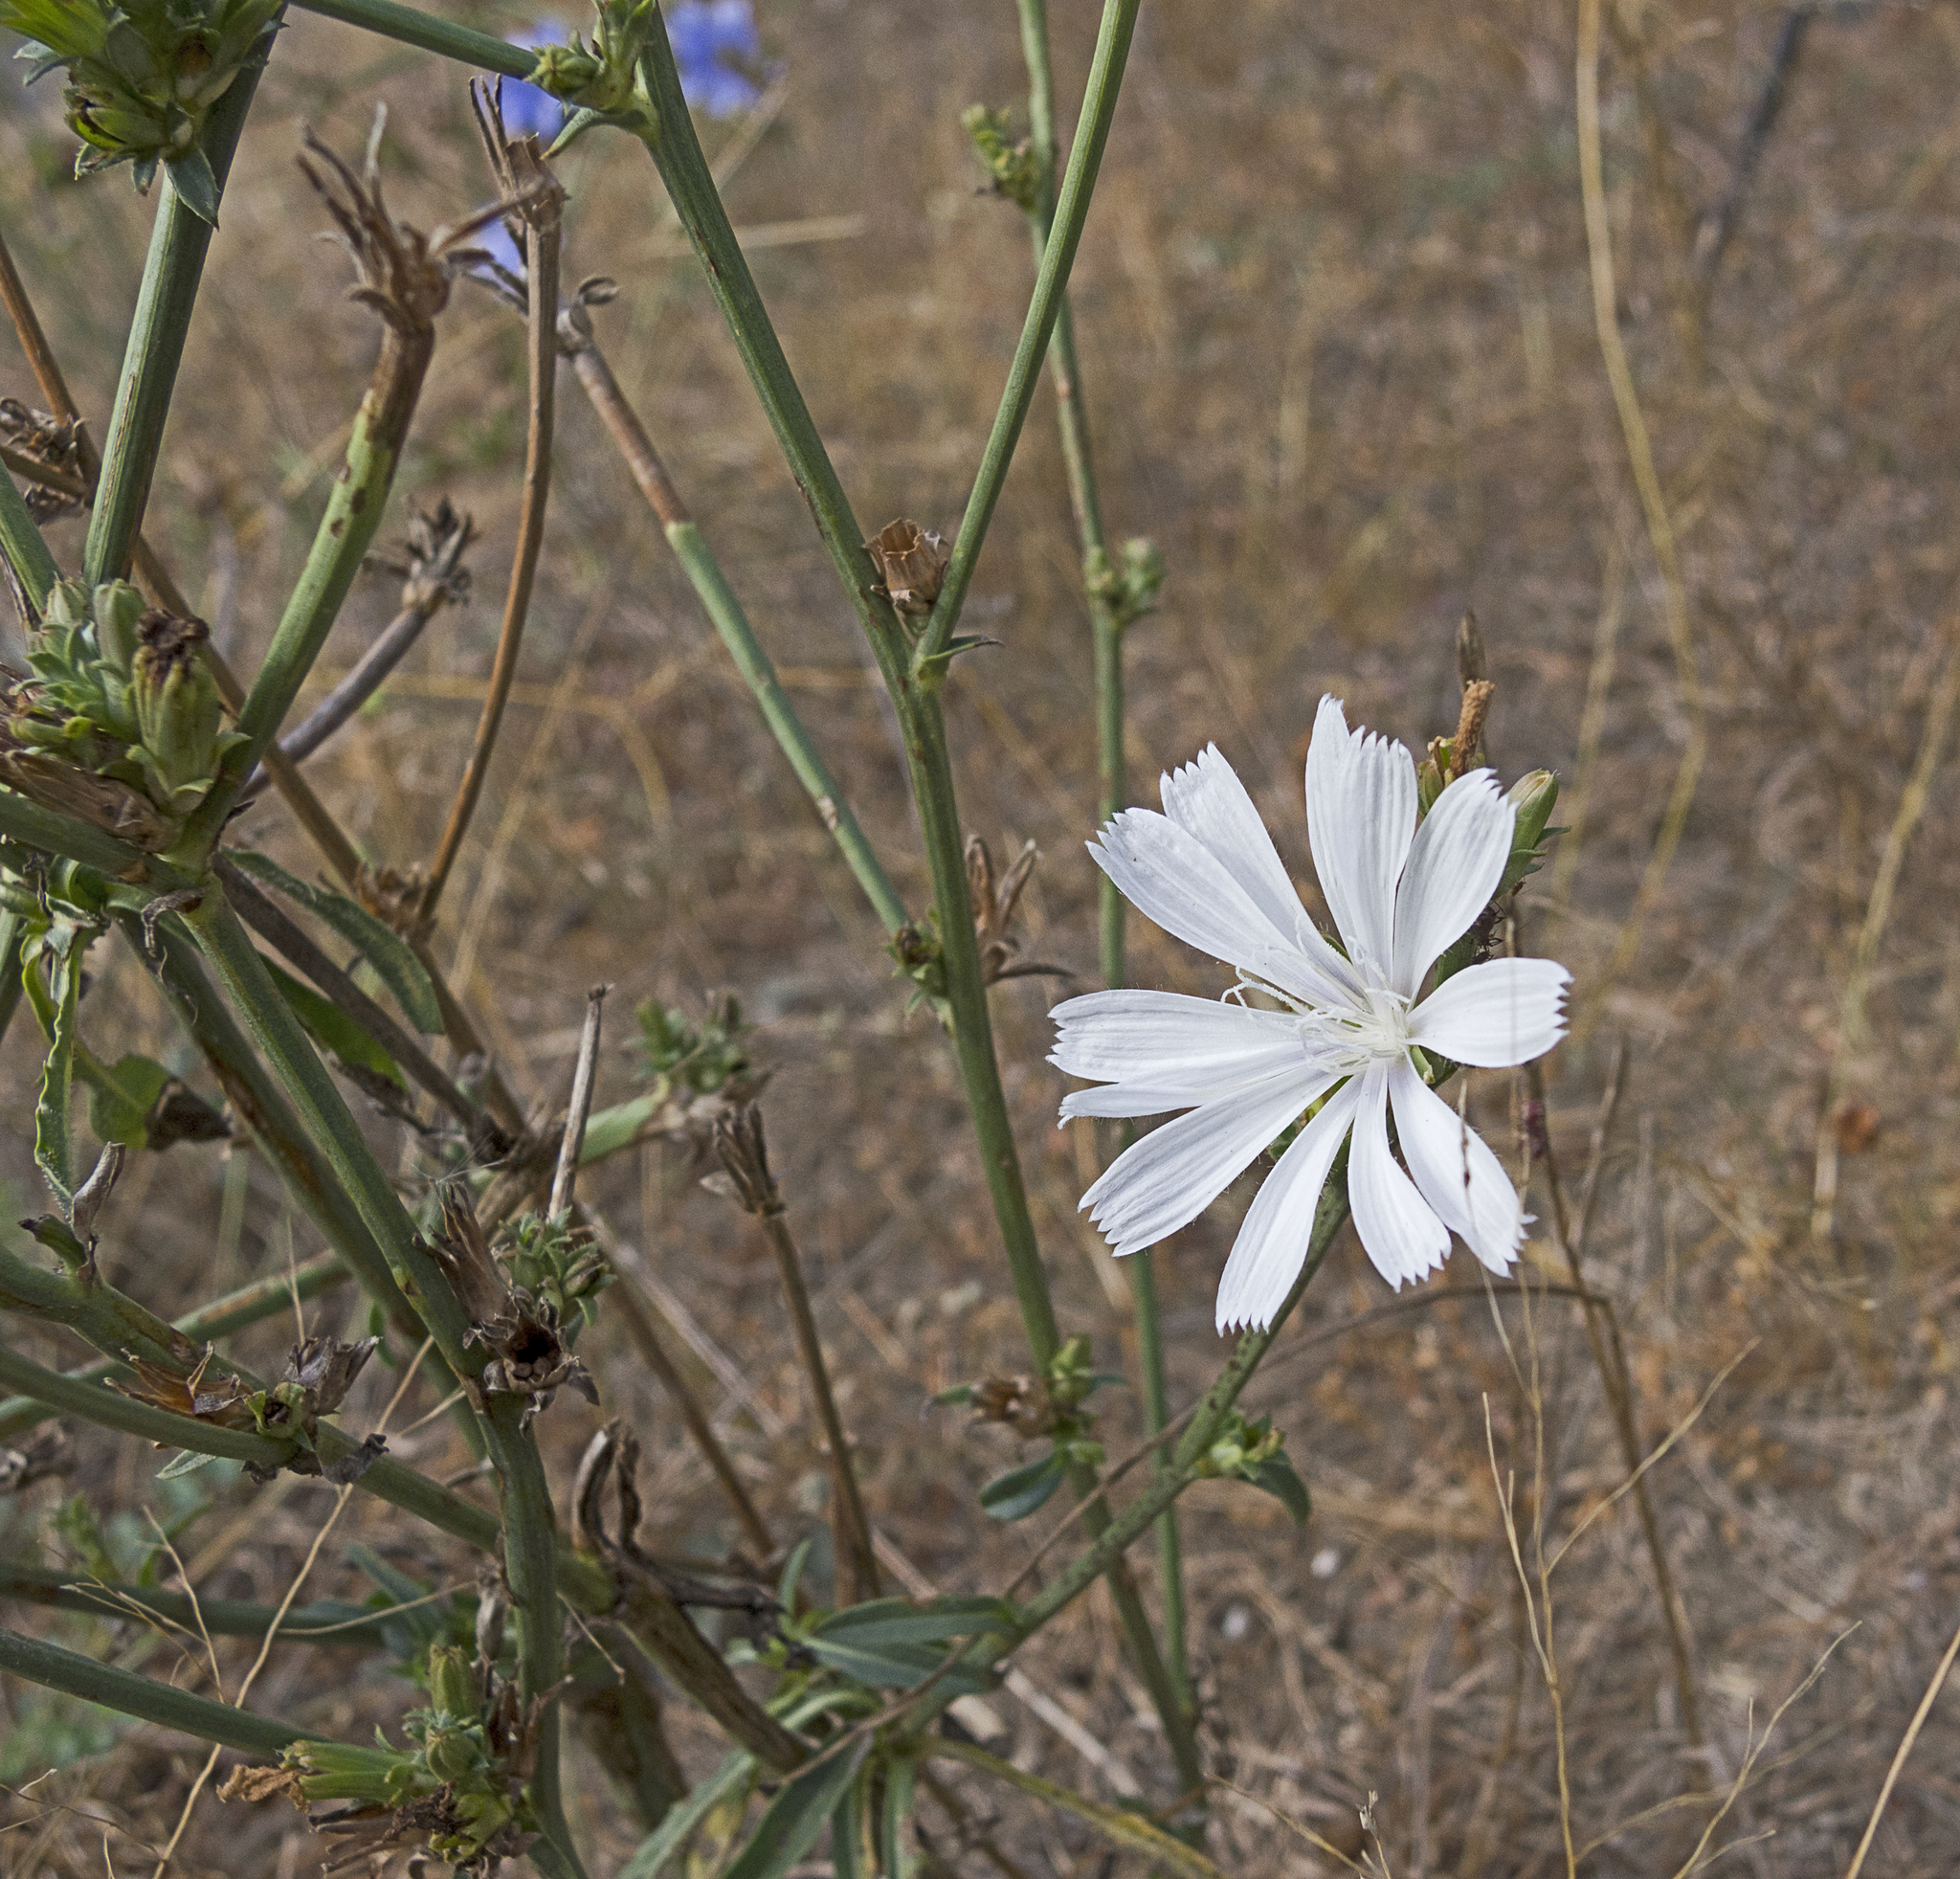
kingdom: Plantae
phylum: Tracheophyta
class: Magnoliopsida
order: Asterales
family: Asteraceae
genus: Cichorium
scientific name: Cichorium intybus
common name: Chicory
